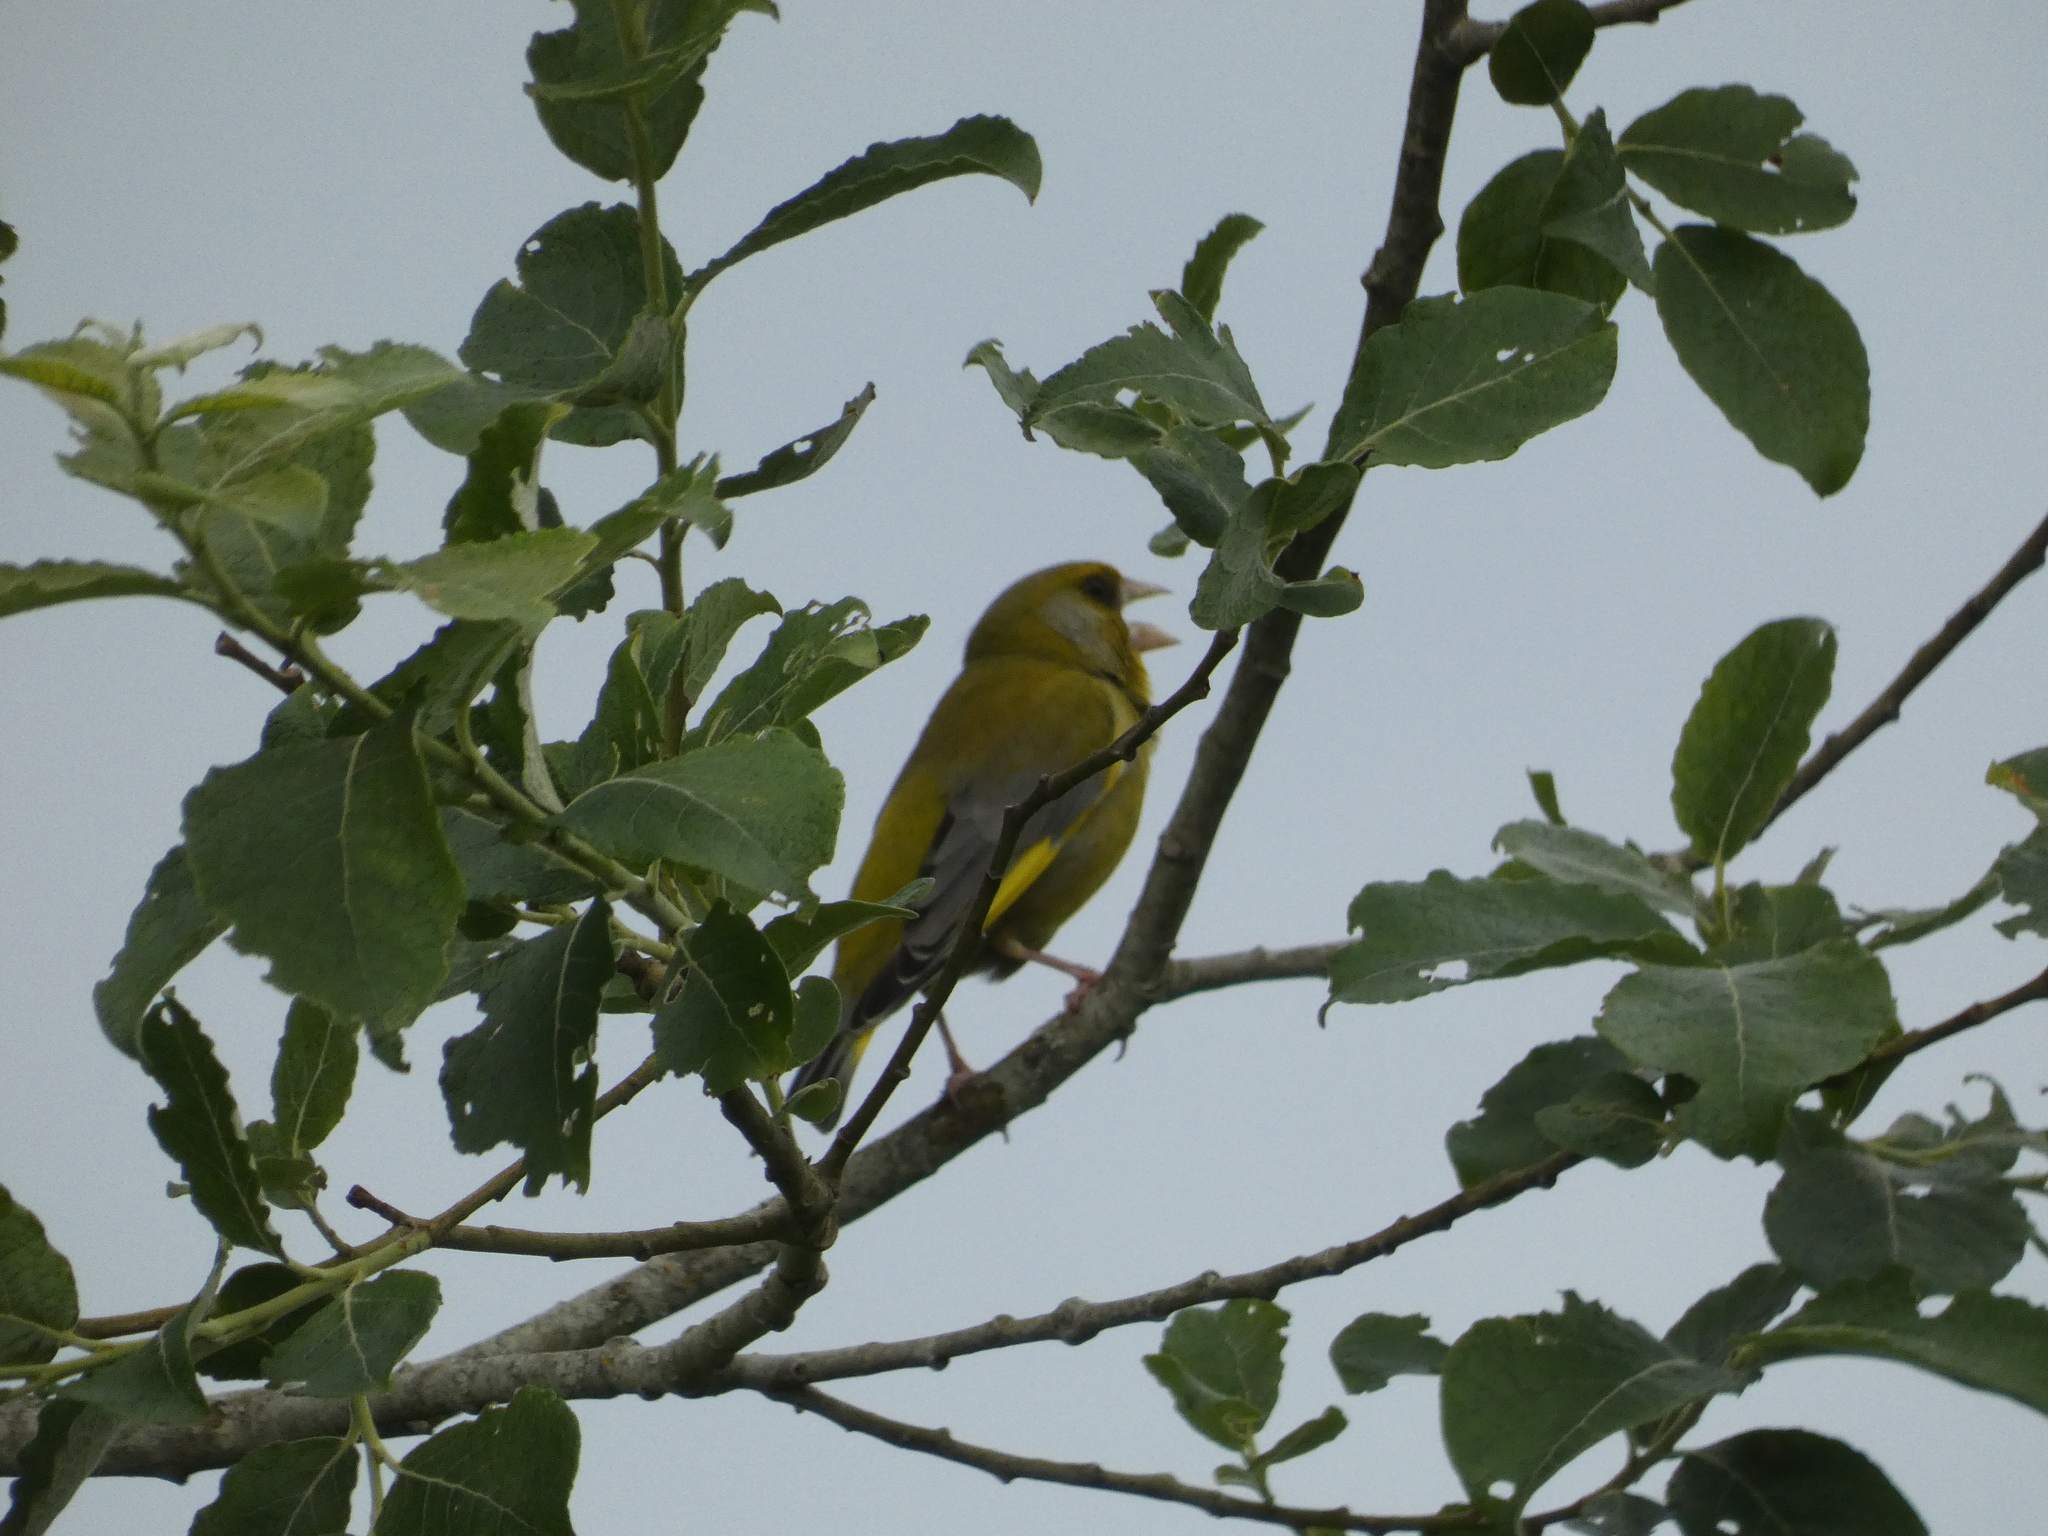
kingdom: Plantae
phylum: Tracheophyta
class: Liliopsida
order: Poales
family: Poaceae
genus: Chloris
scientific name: Chloris chloris
